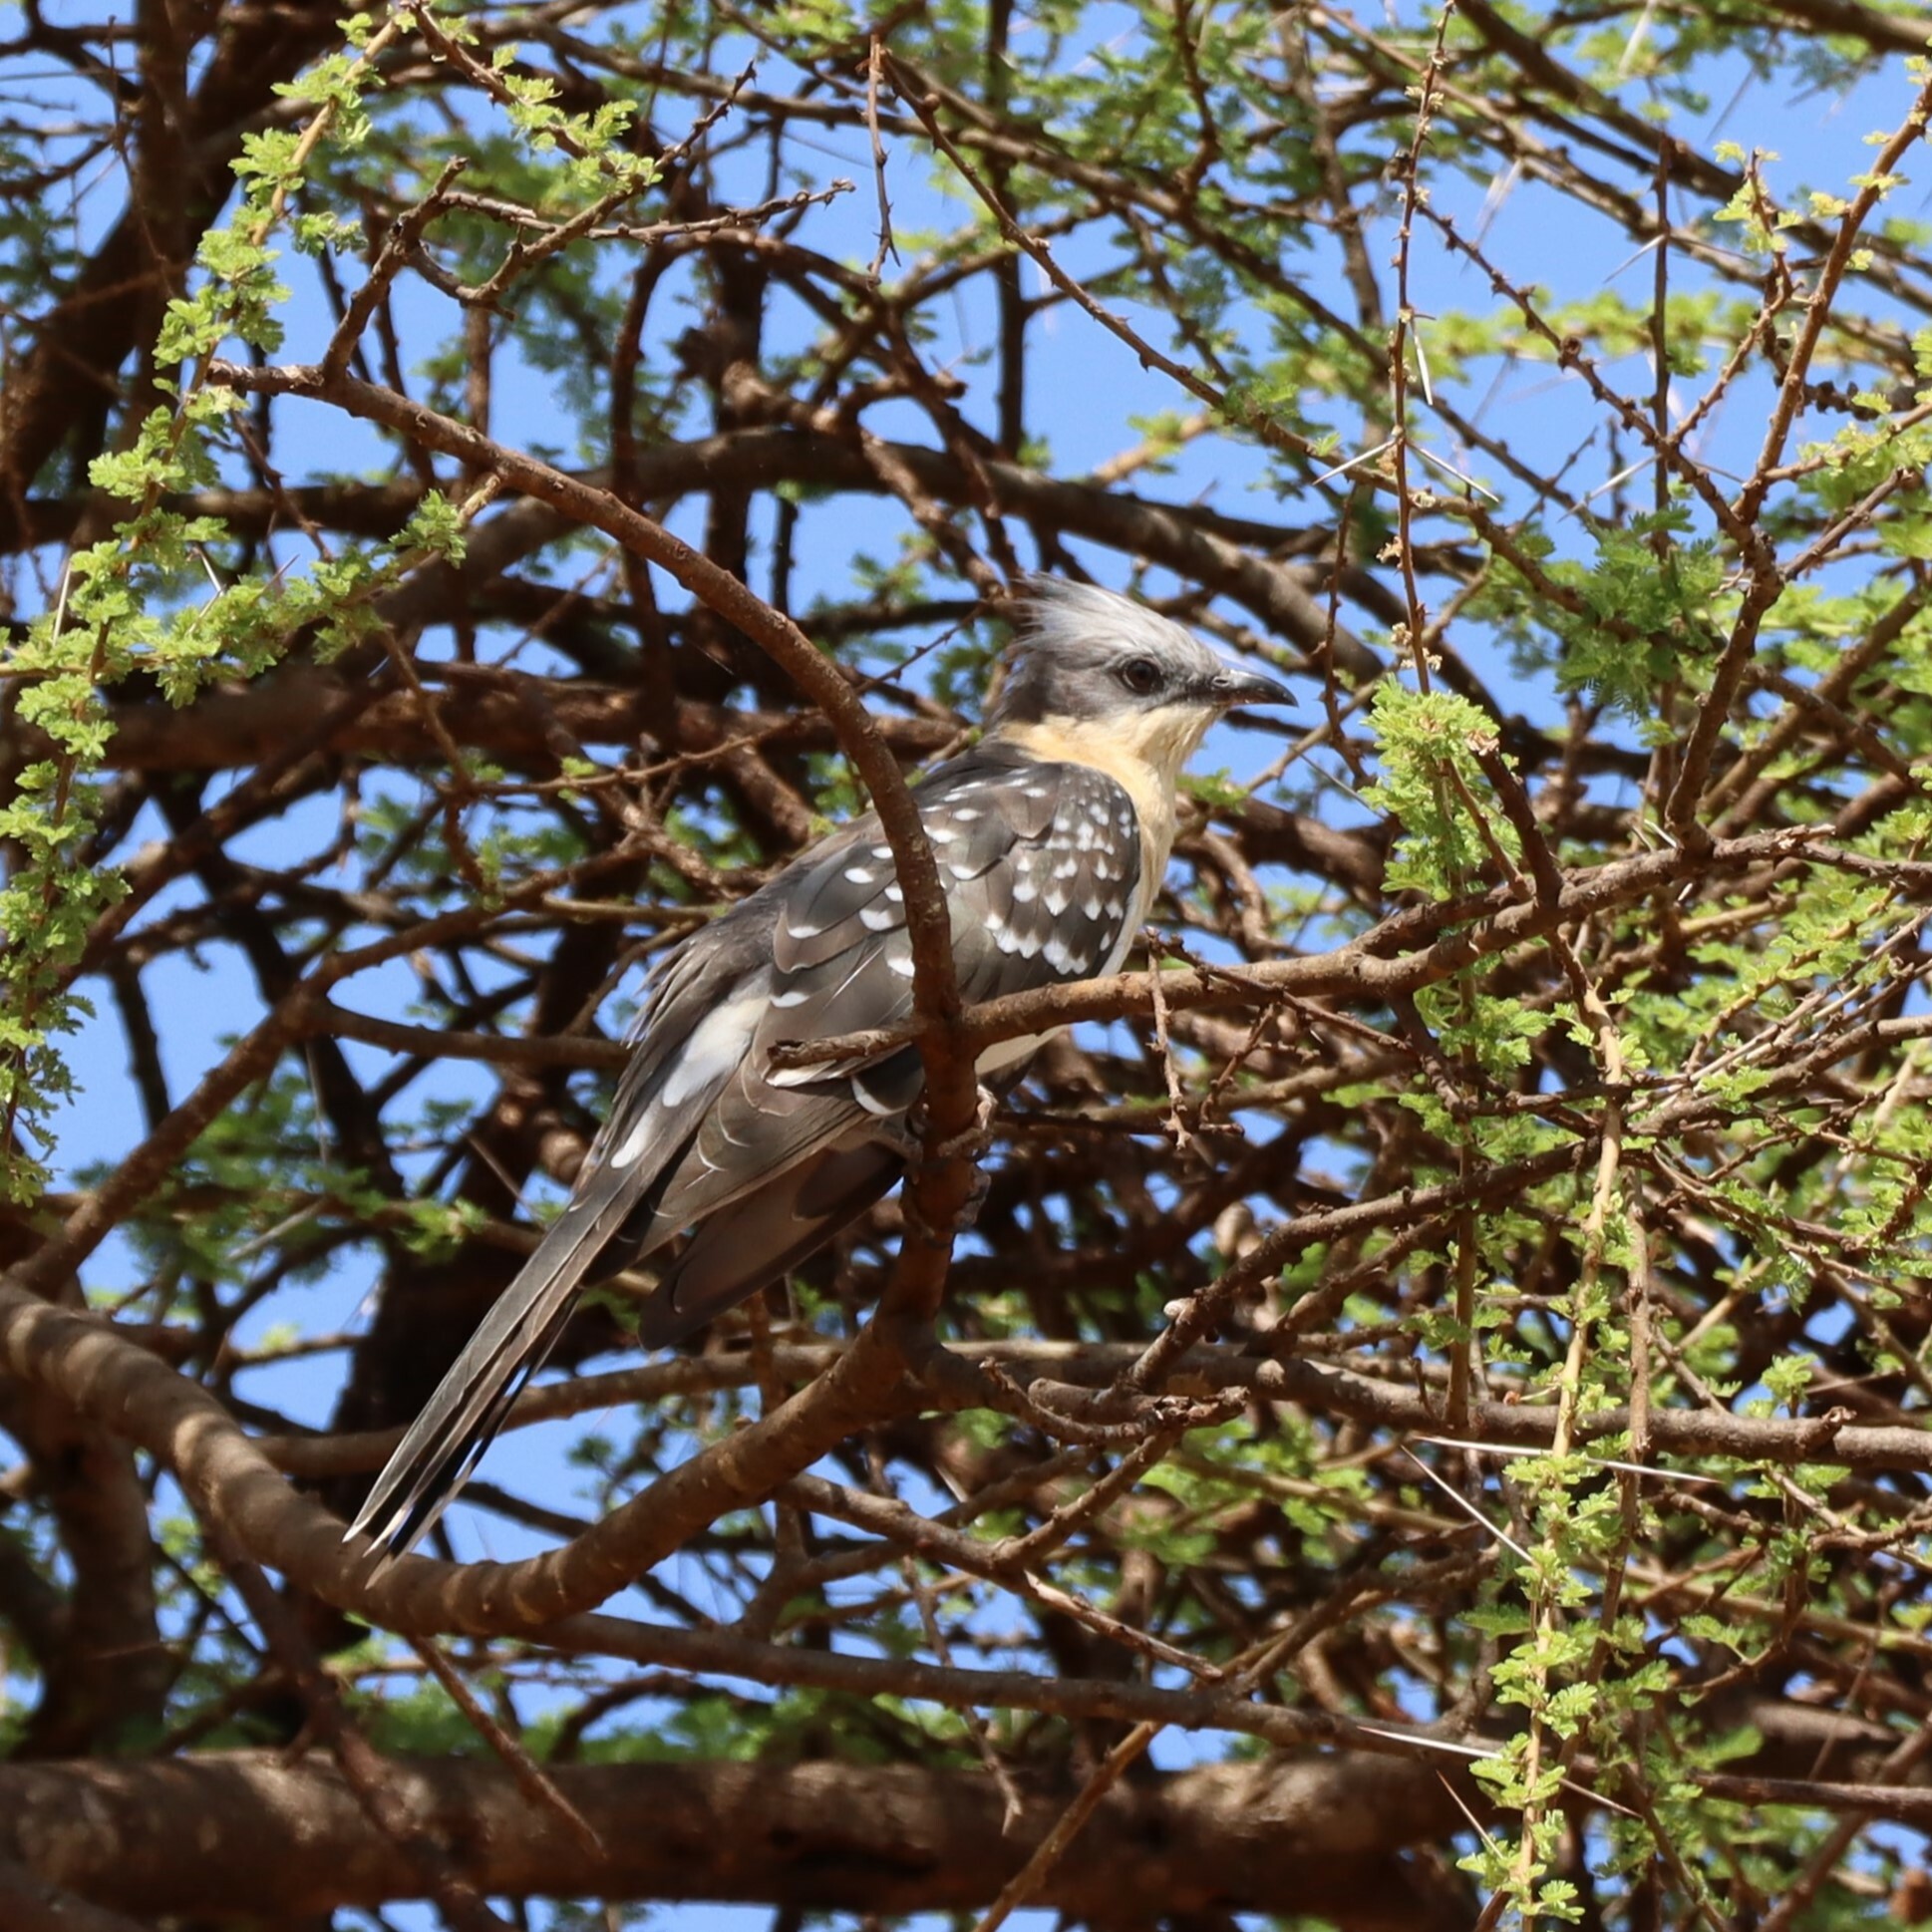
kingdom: Animalia
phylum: Chordata
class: Aves
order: Cuculiformes
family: Cuculidae
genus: Clamator
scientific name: Clamator glandarius
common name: Great spotted cuckoo
